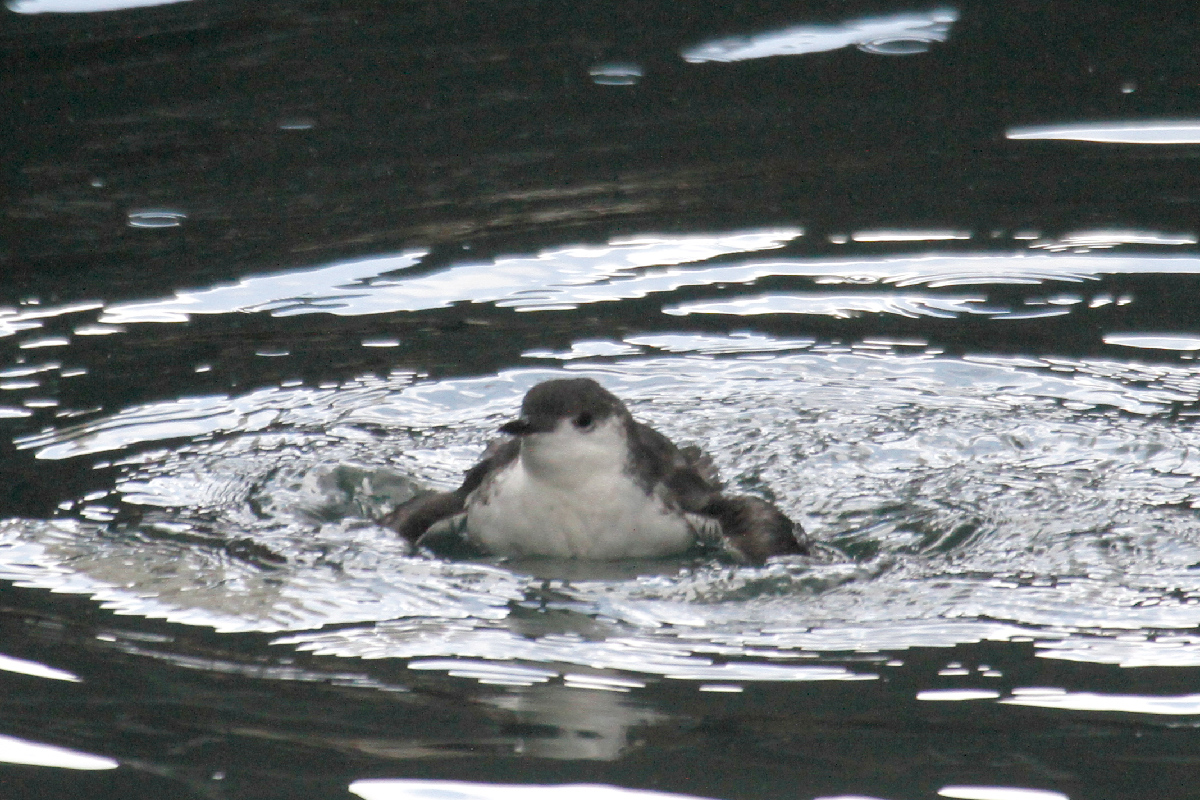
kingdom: Animalia
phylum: Chordata
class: Aves
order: Charadriiformes
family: Alcidae
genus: Synthliboramphus
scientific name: Synthliboramphus hypoleucus
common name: Guadalupe murrelet
